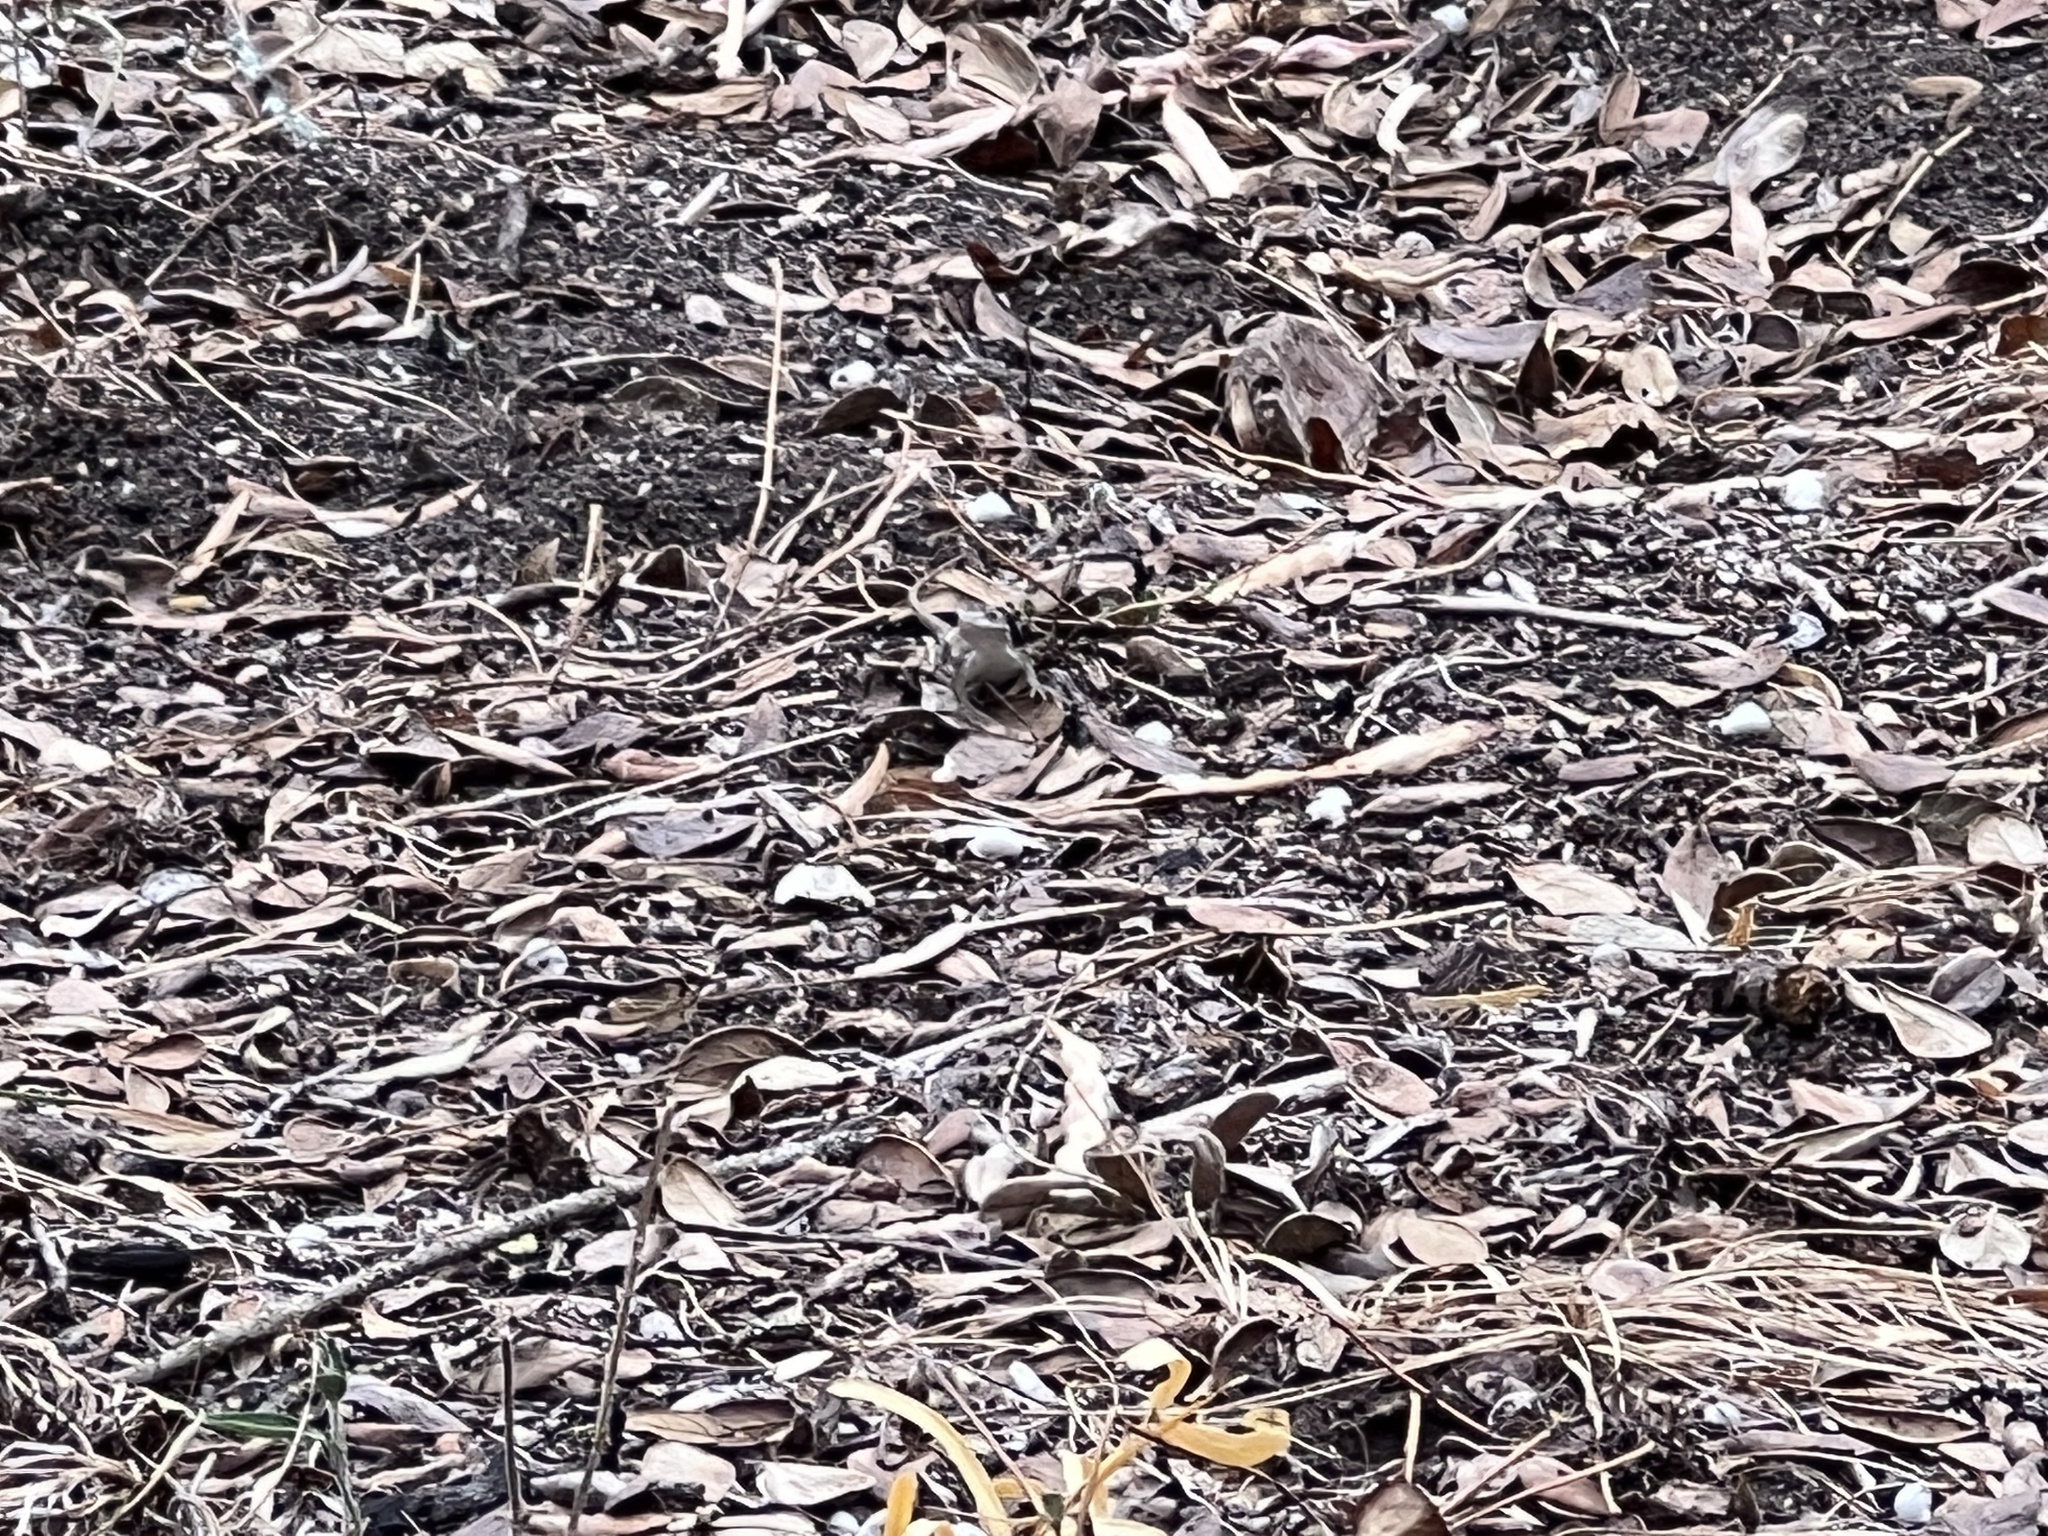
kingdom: Animalia
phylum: Chordata
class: Squamata
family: Phrynosomatidae
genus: Sceloporus
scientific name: Sceloporus variabilis
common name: Rosebelly lizard
